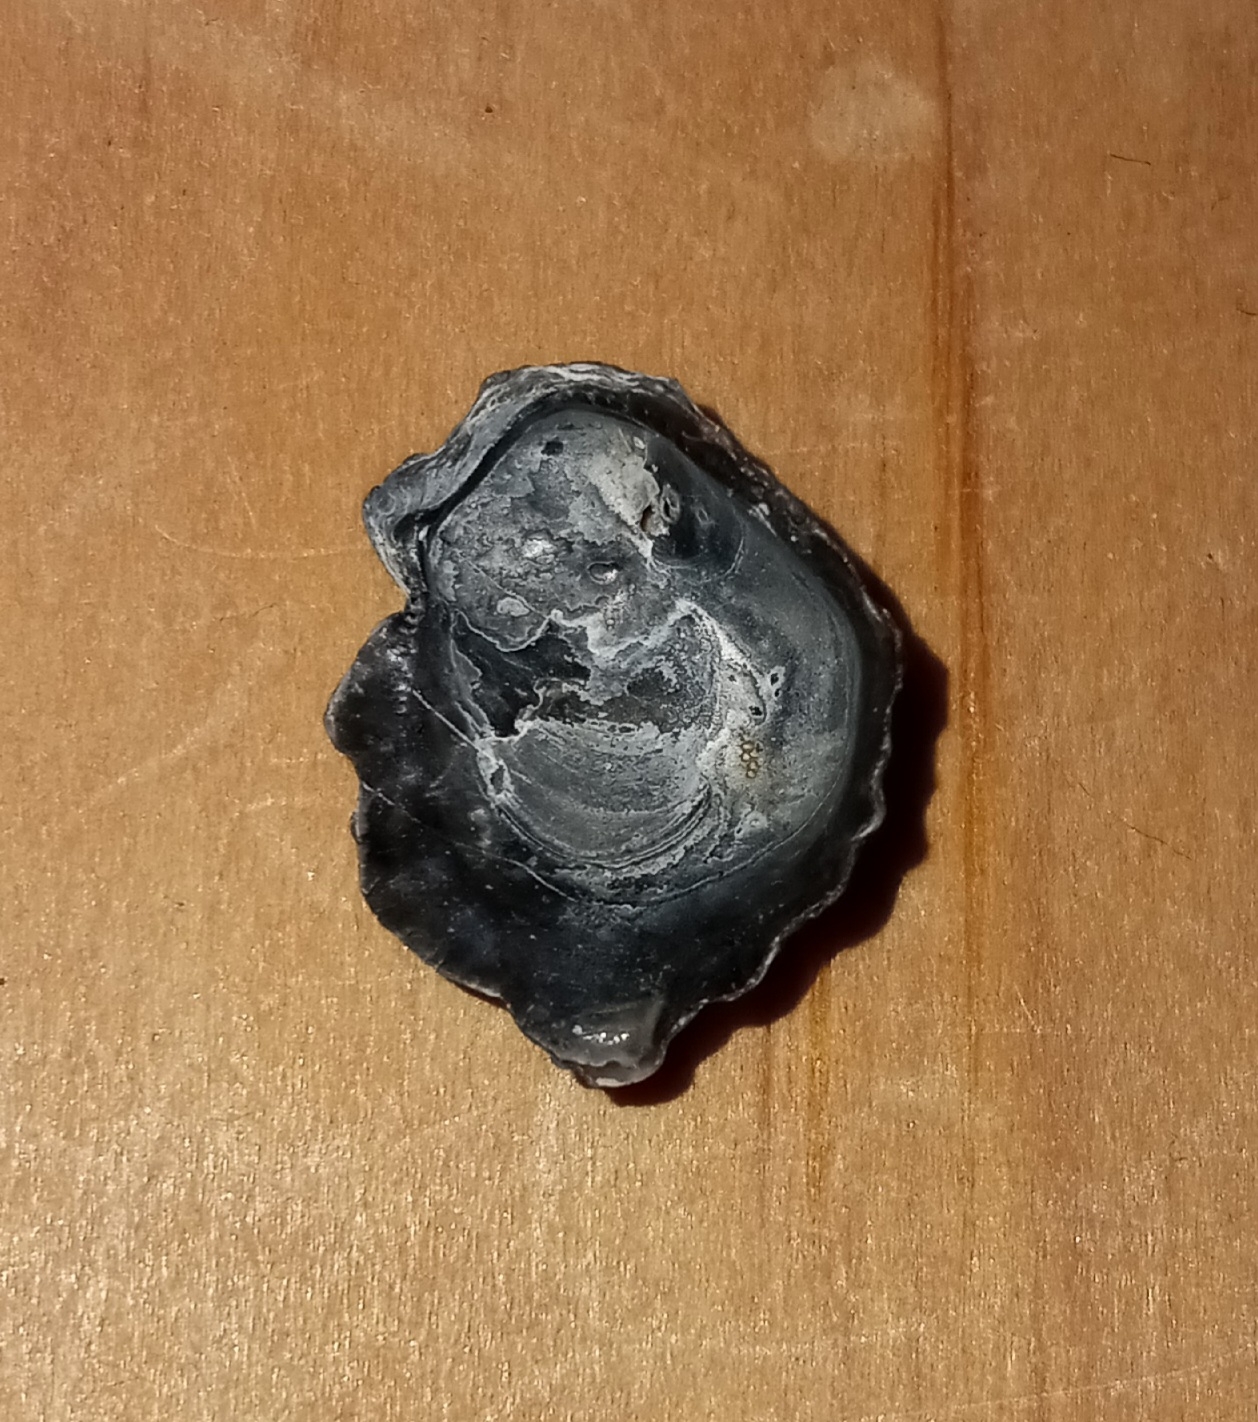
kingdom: Animalia
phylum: Mollusca
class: Bivalvia
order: Ostreida
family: Ostreidae
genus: Crassostrea
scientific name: Crassostrea virginica
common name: American oyster
